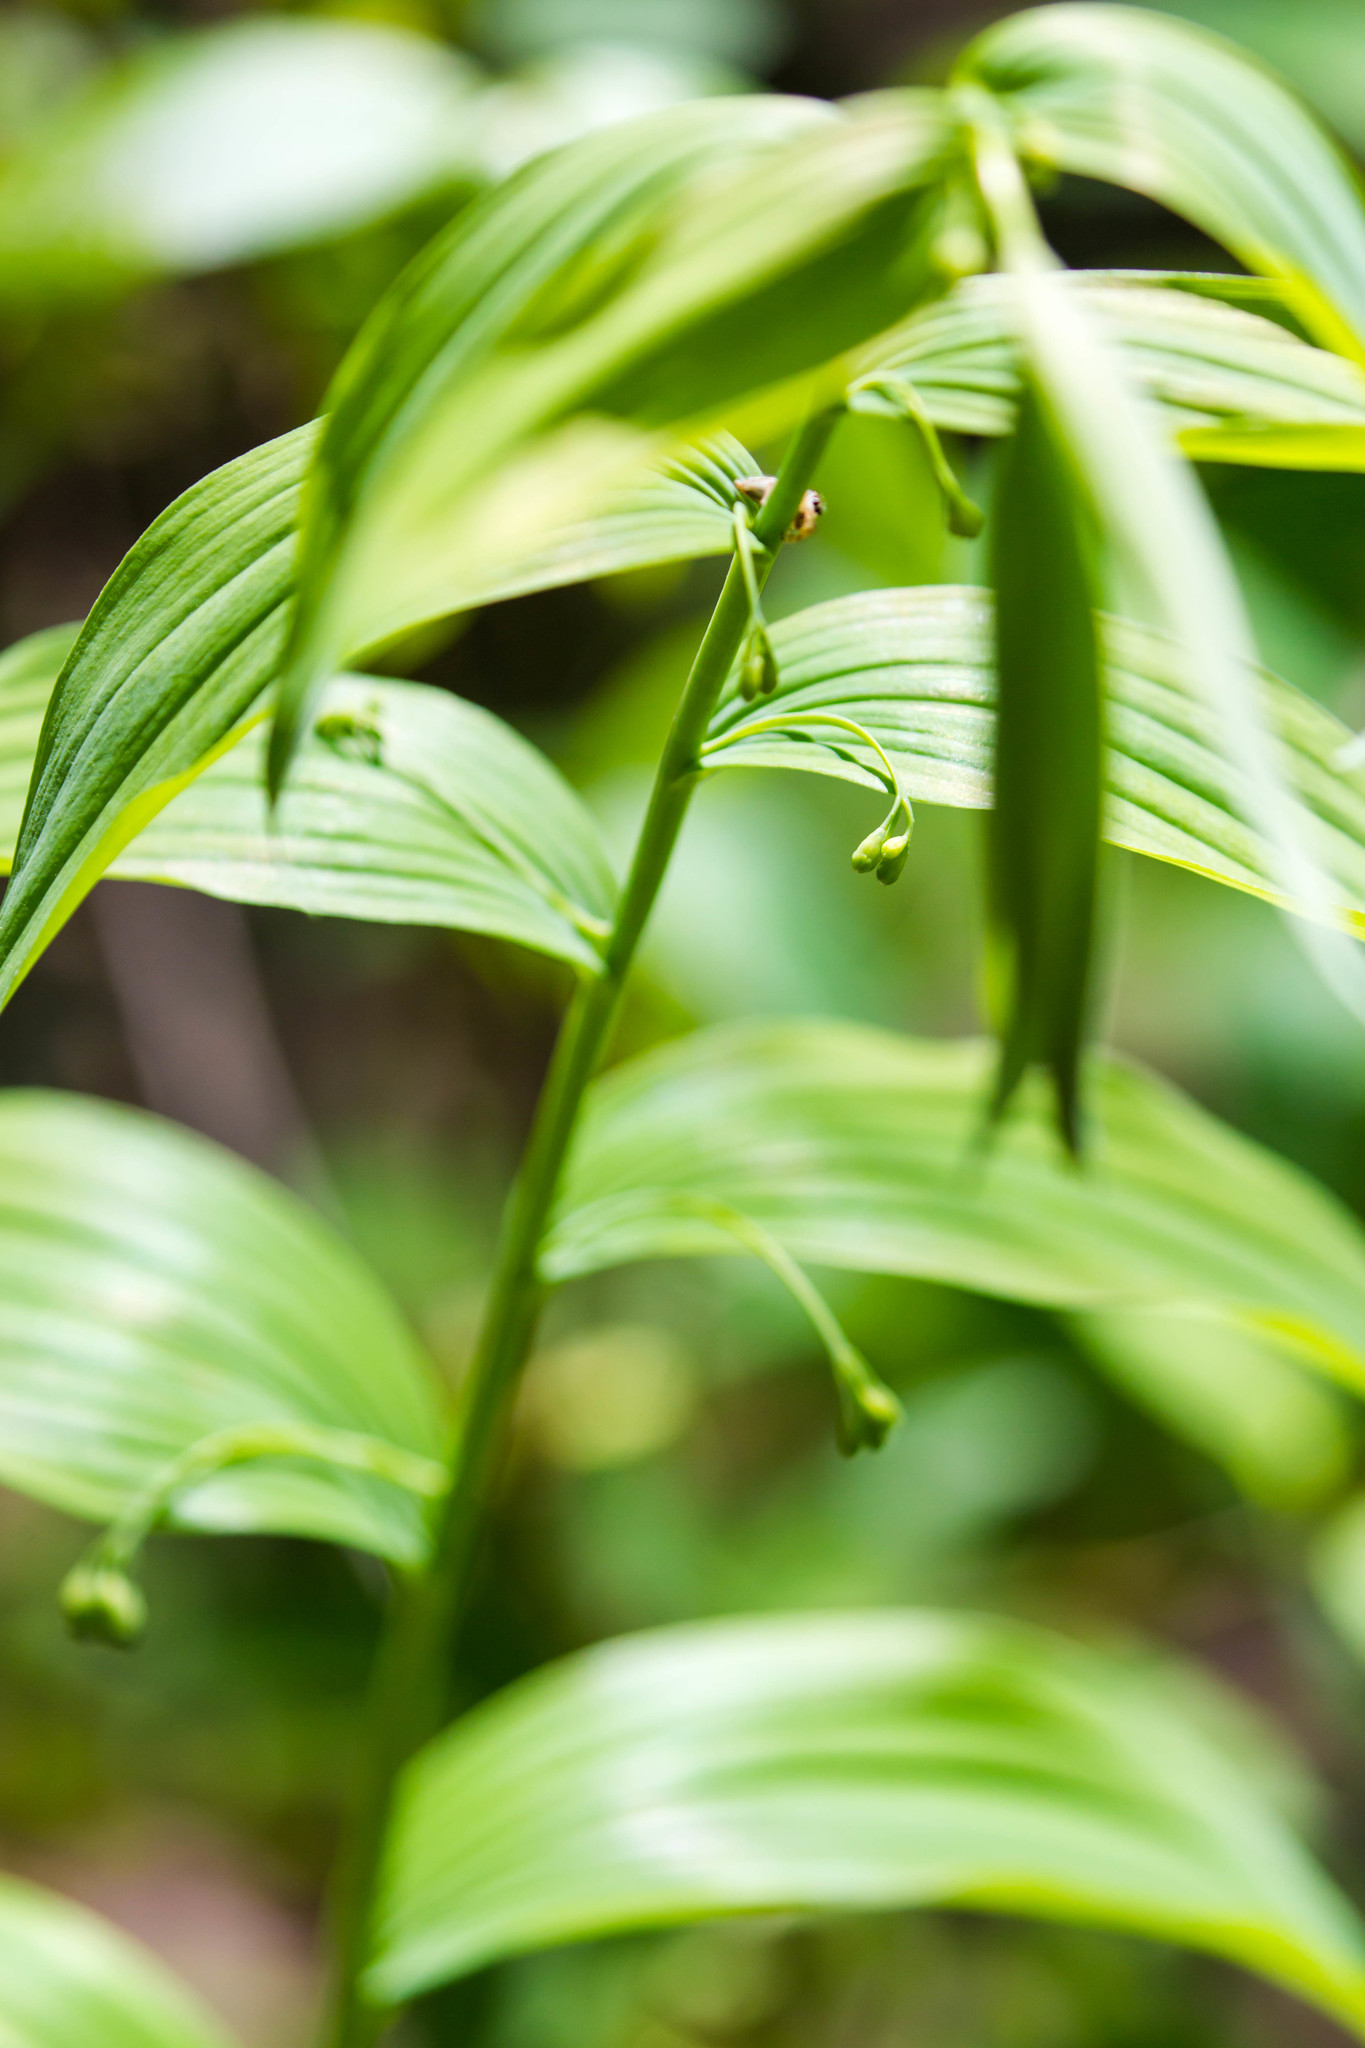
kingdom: Plantae
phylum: Tracheophyta
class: Liliopsida
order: Asparagales
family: Asparagaceae
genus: Polygonatum
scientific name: Polygonatum biflorum
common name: American solomon's-seal
